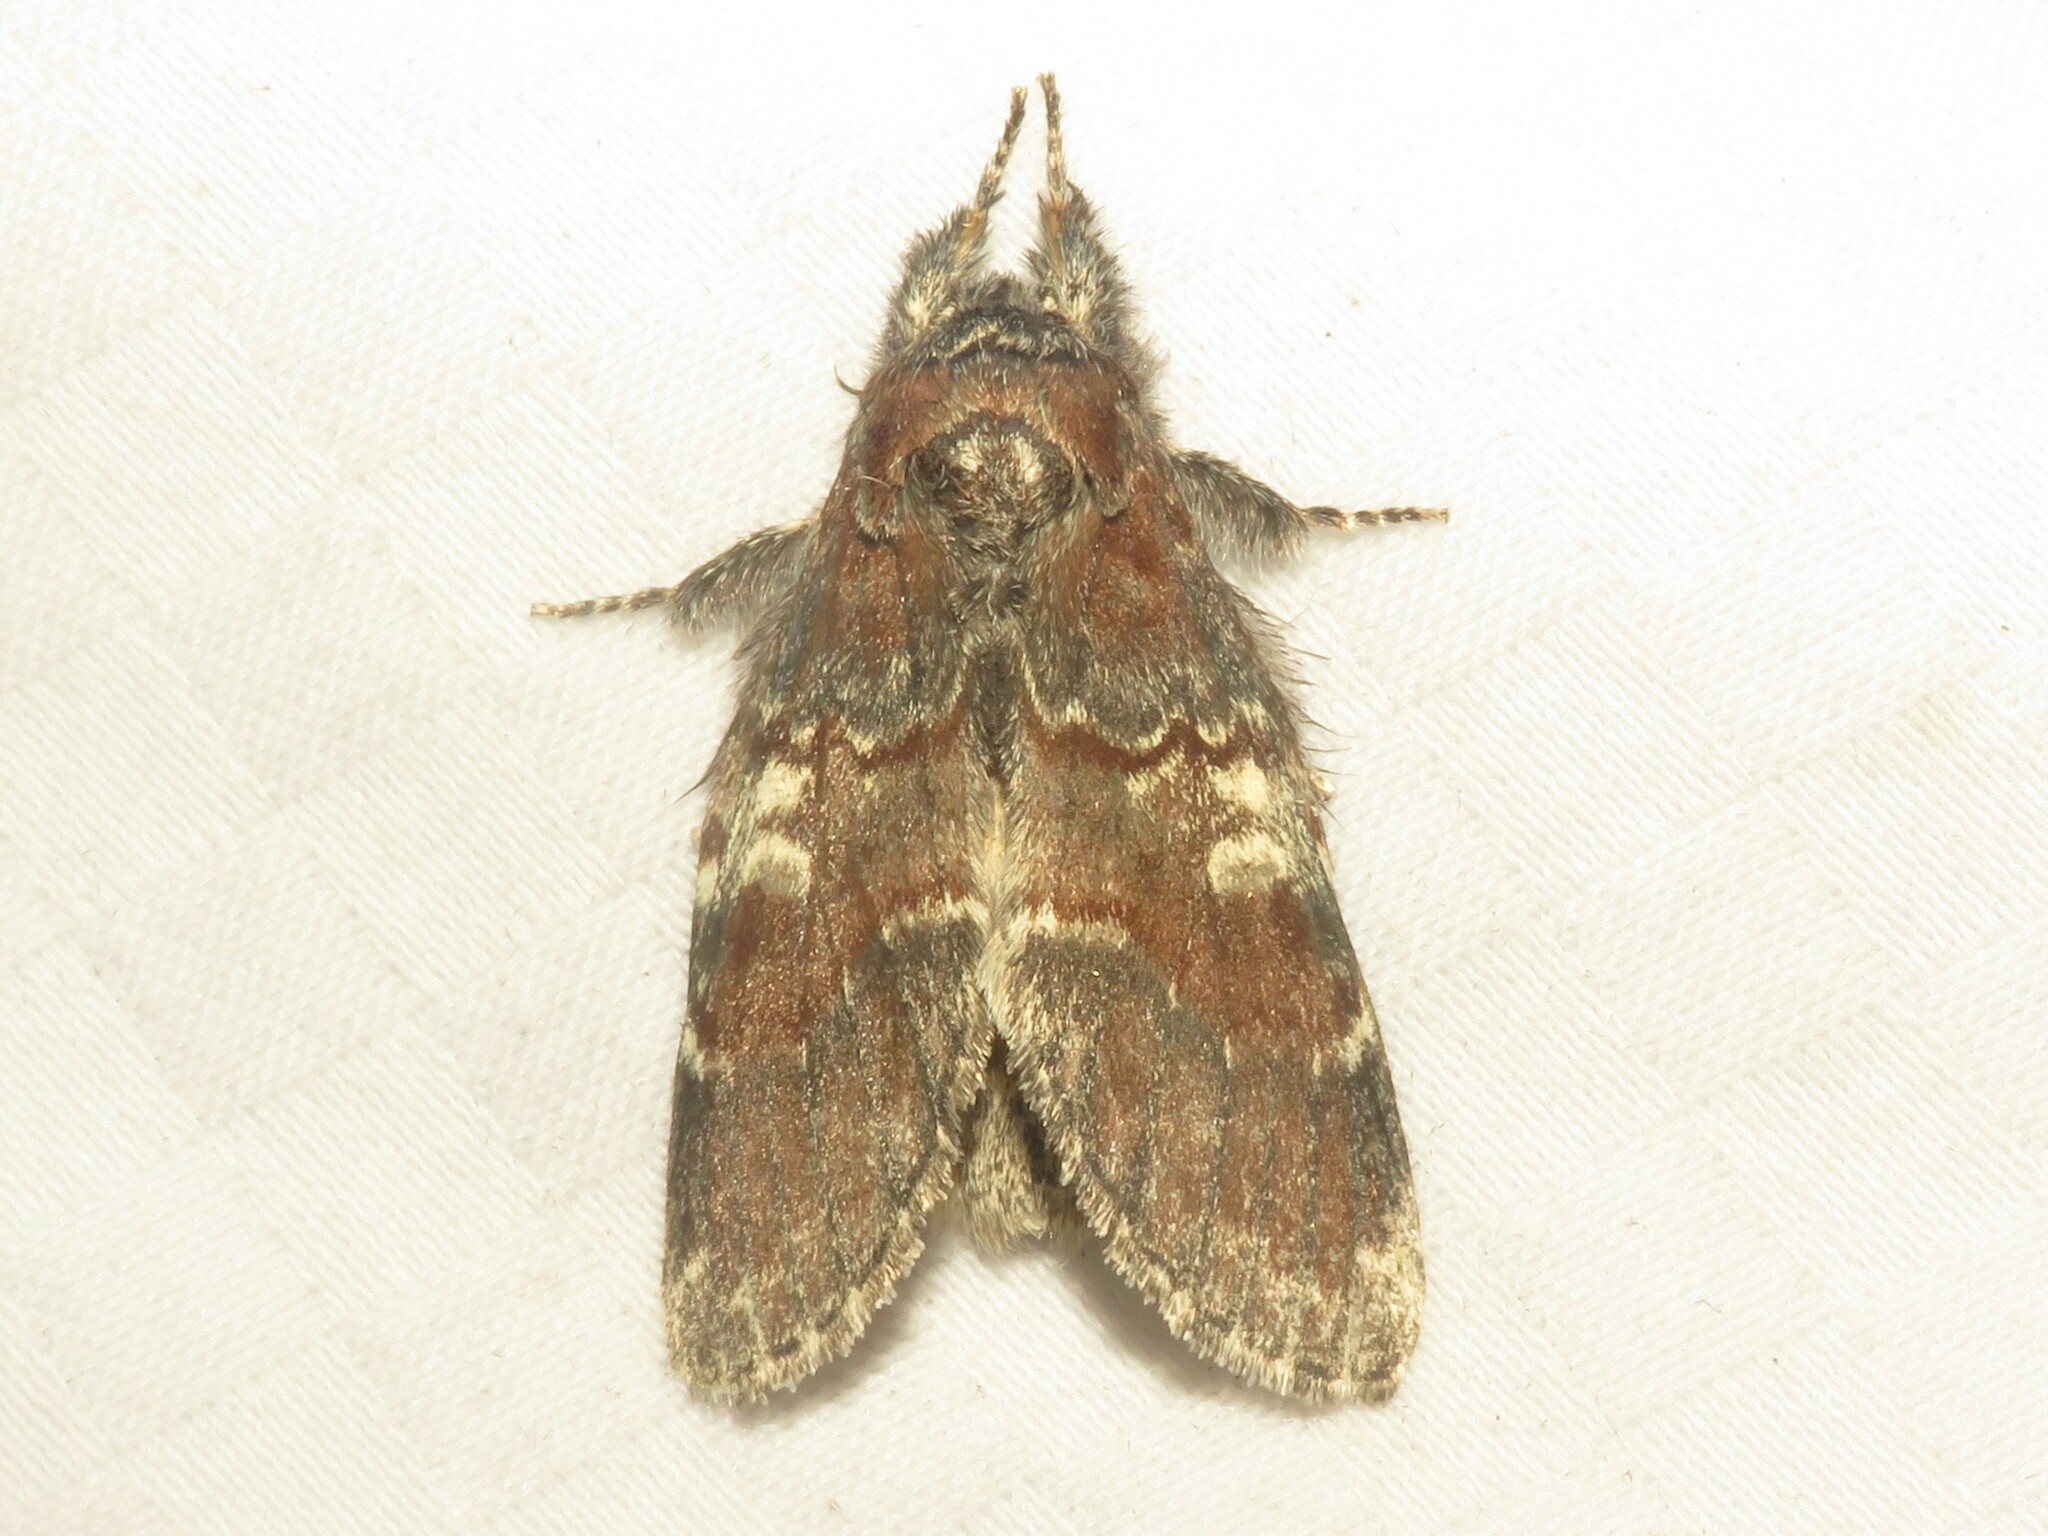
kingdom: Animalia
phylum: Arthropoda
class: Insecta
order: Lepidoptera
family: Notodontidae
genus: Peridea
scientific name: Peridea ferruginea
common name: Chocolate prominent
